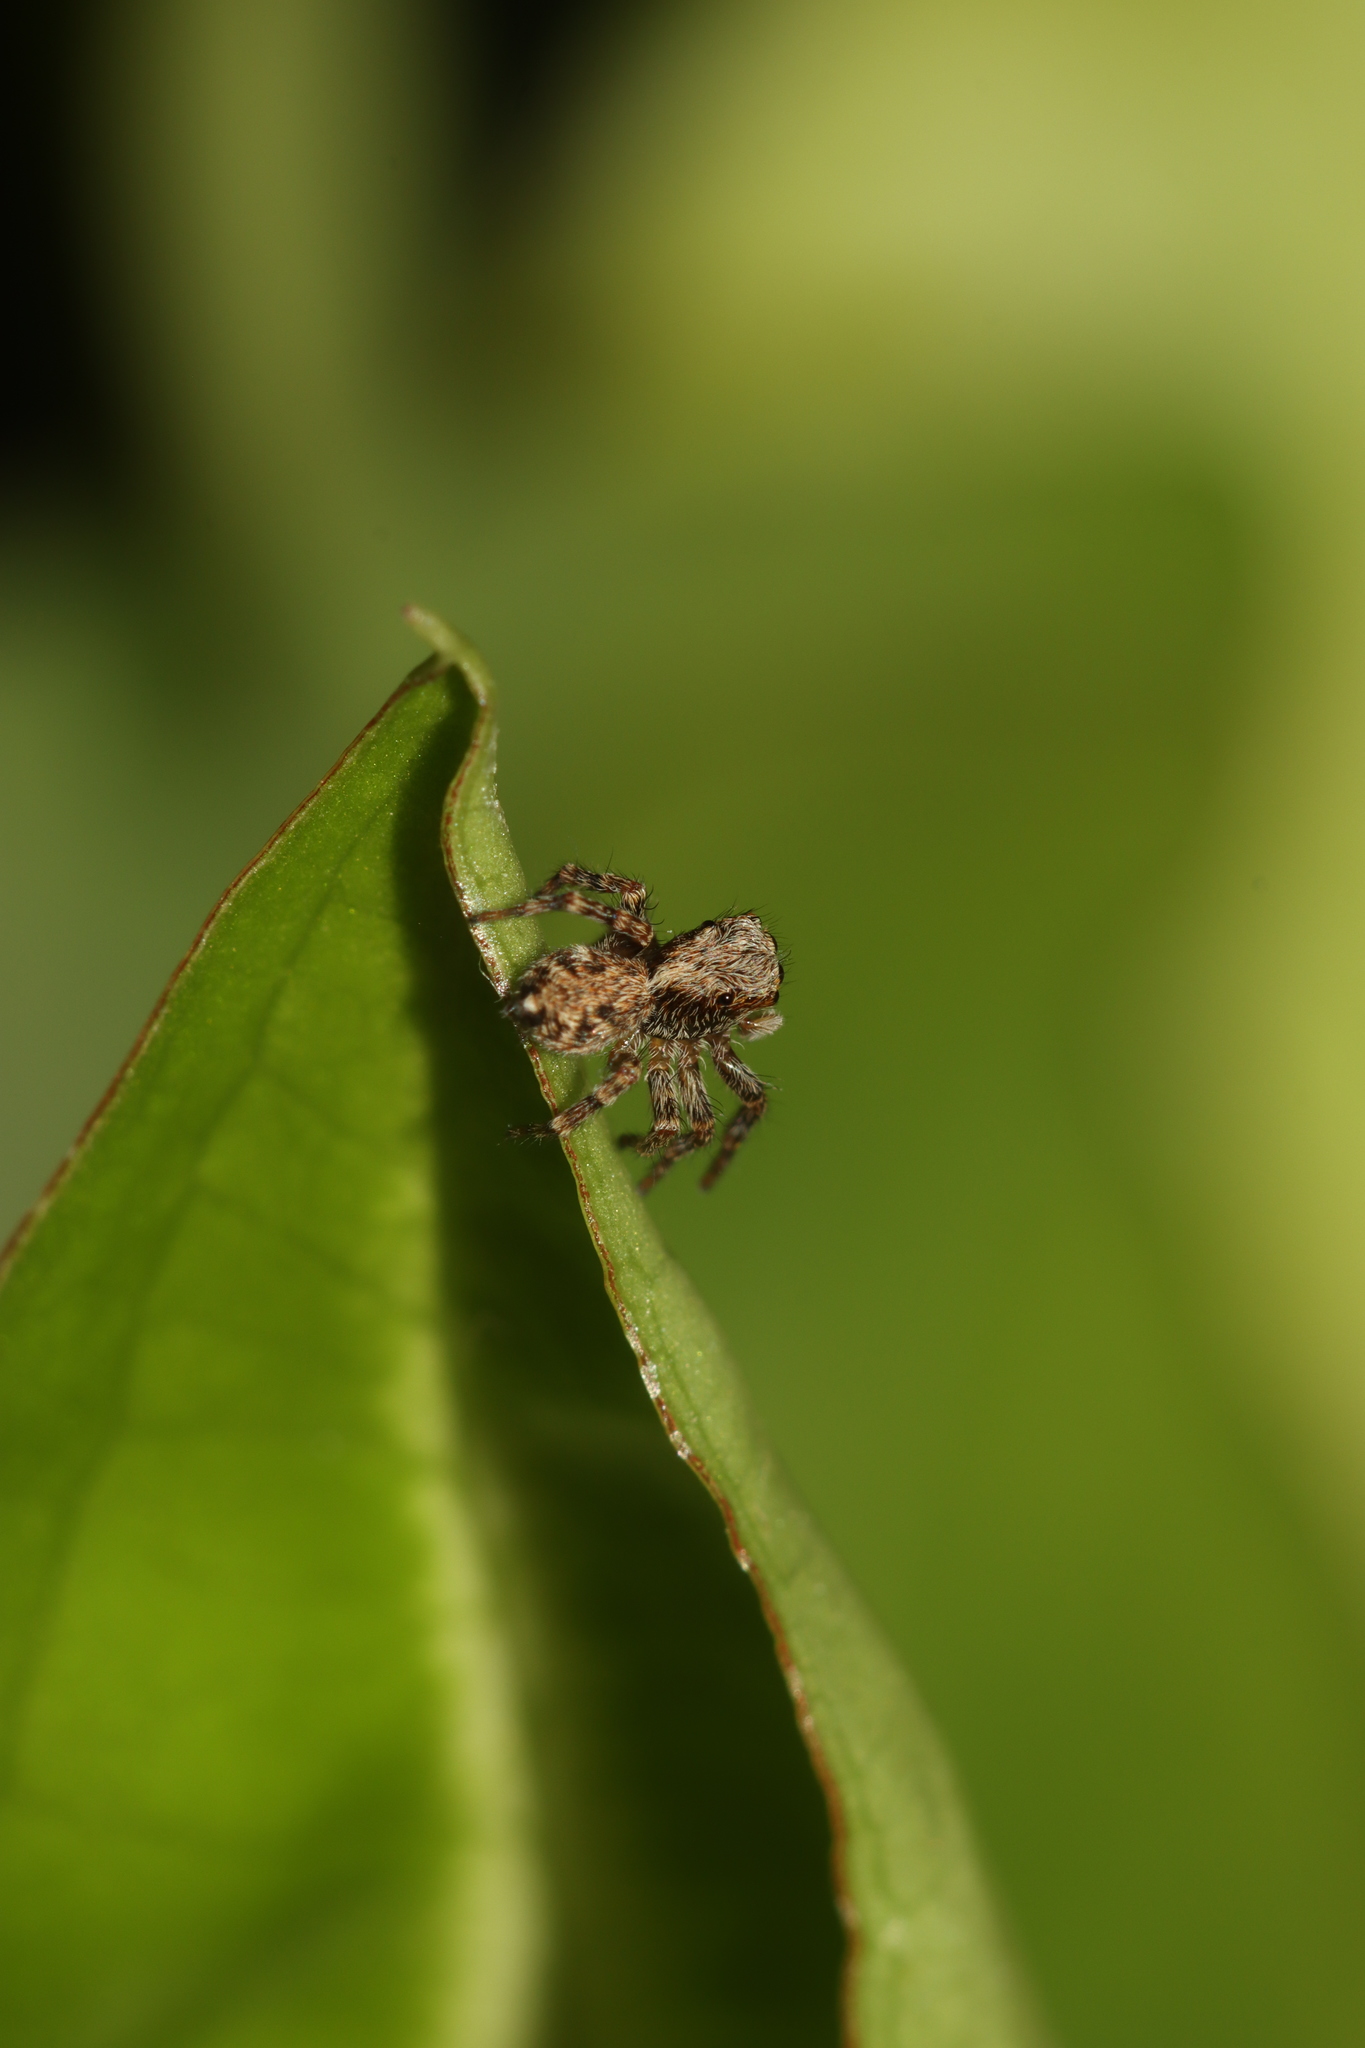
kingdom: Animalia
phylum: Arthropoda
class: Arachnida
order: Araneae
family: Salticidae
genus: Pseudeuophrys
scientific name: Pseudeuophrys lanigera
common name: Jumping spider
